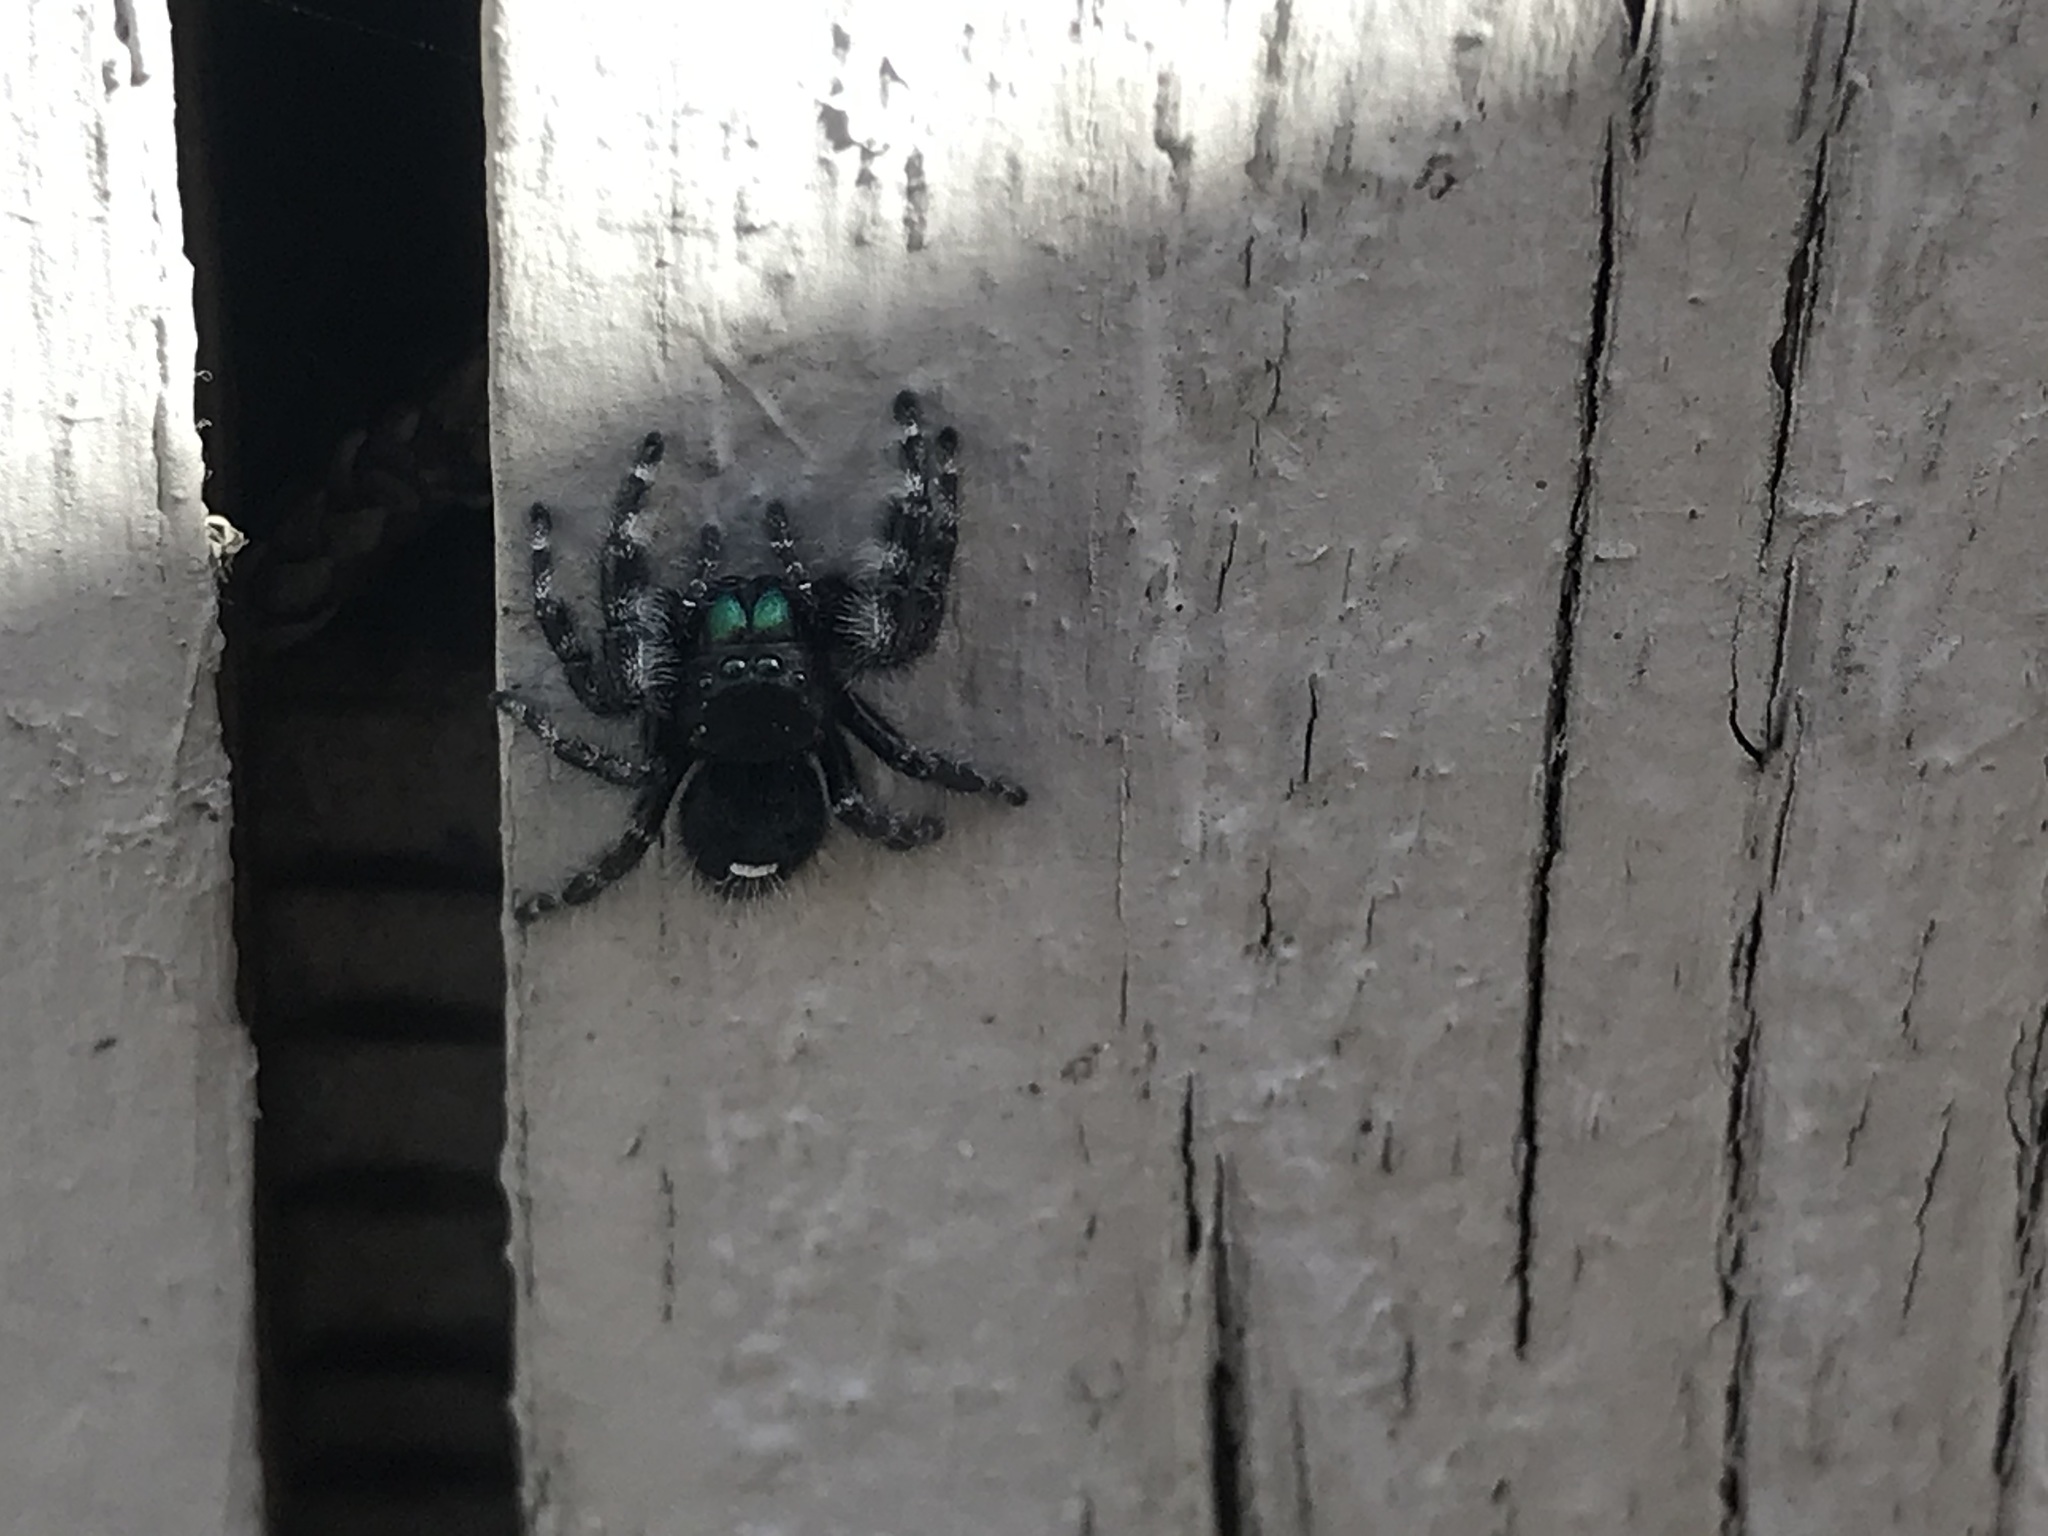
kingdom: Animalia
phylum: Arthropoda
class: Arachnida
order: Araneae
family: Salticidae
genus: Phidippus
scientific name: Phidippus audax
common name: Bold jumper
